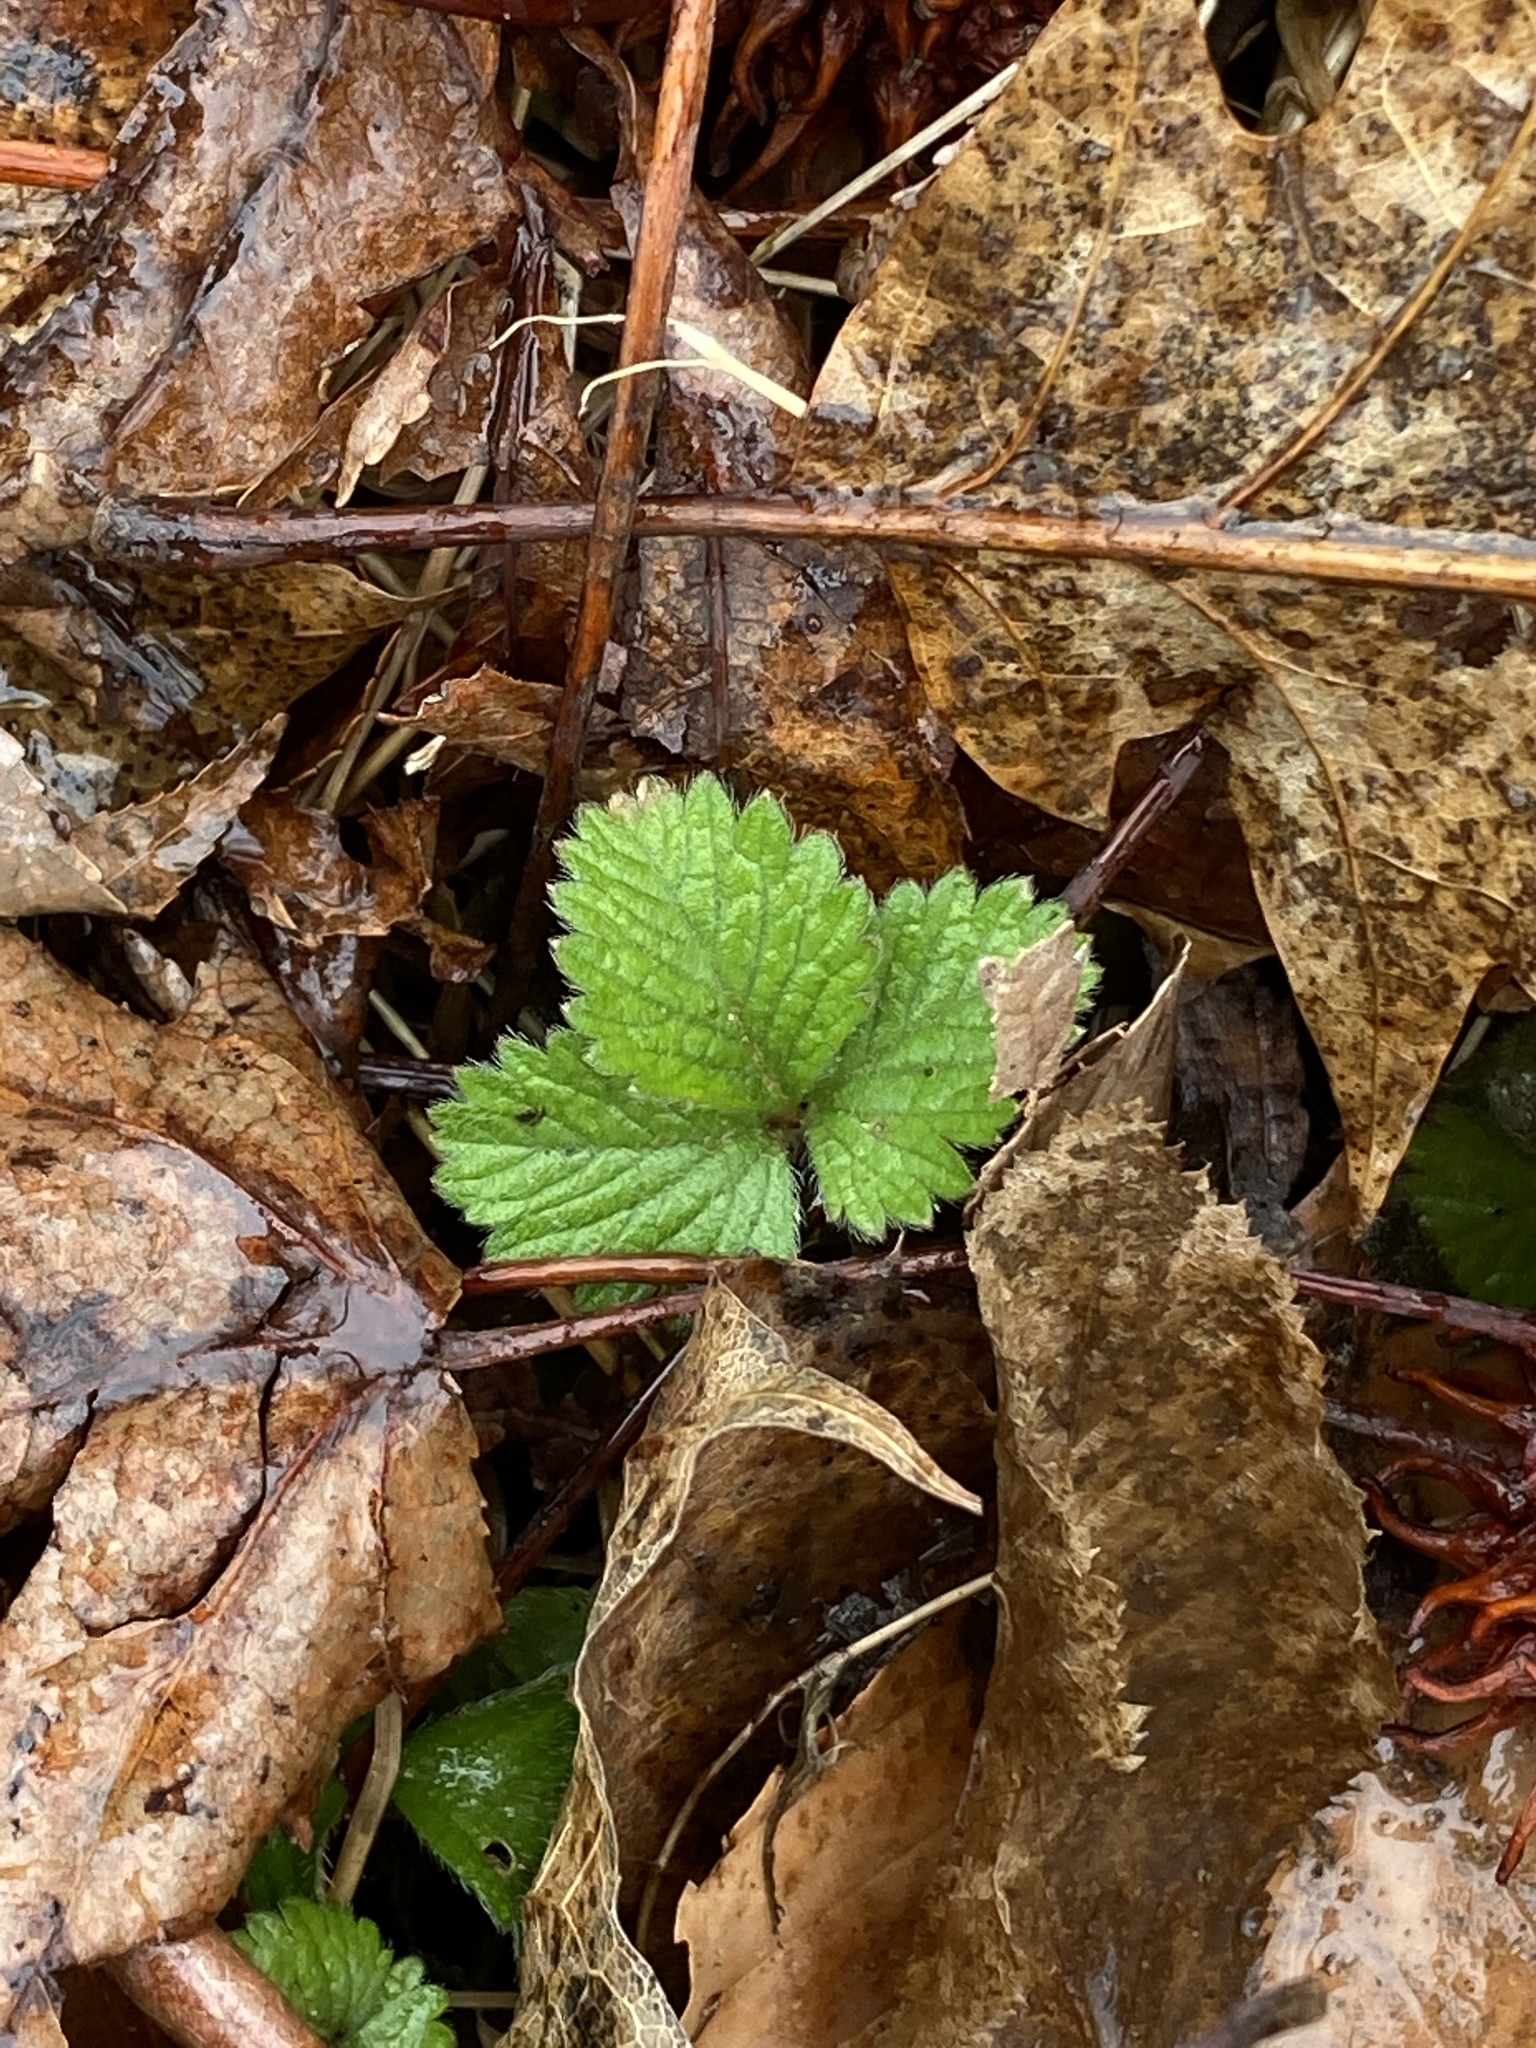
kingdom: Plantae
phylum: Tracheophyta
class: Magnoliopsida
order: Rosales
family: Rosaceae
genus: Potentilla
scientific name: Potentilla indica
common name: Yellow-flowered strawberry
